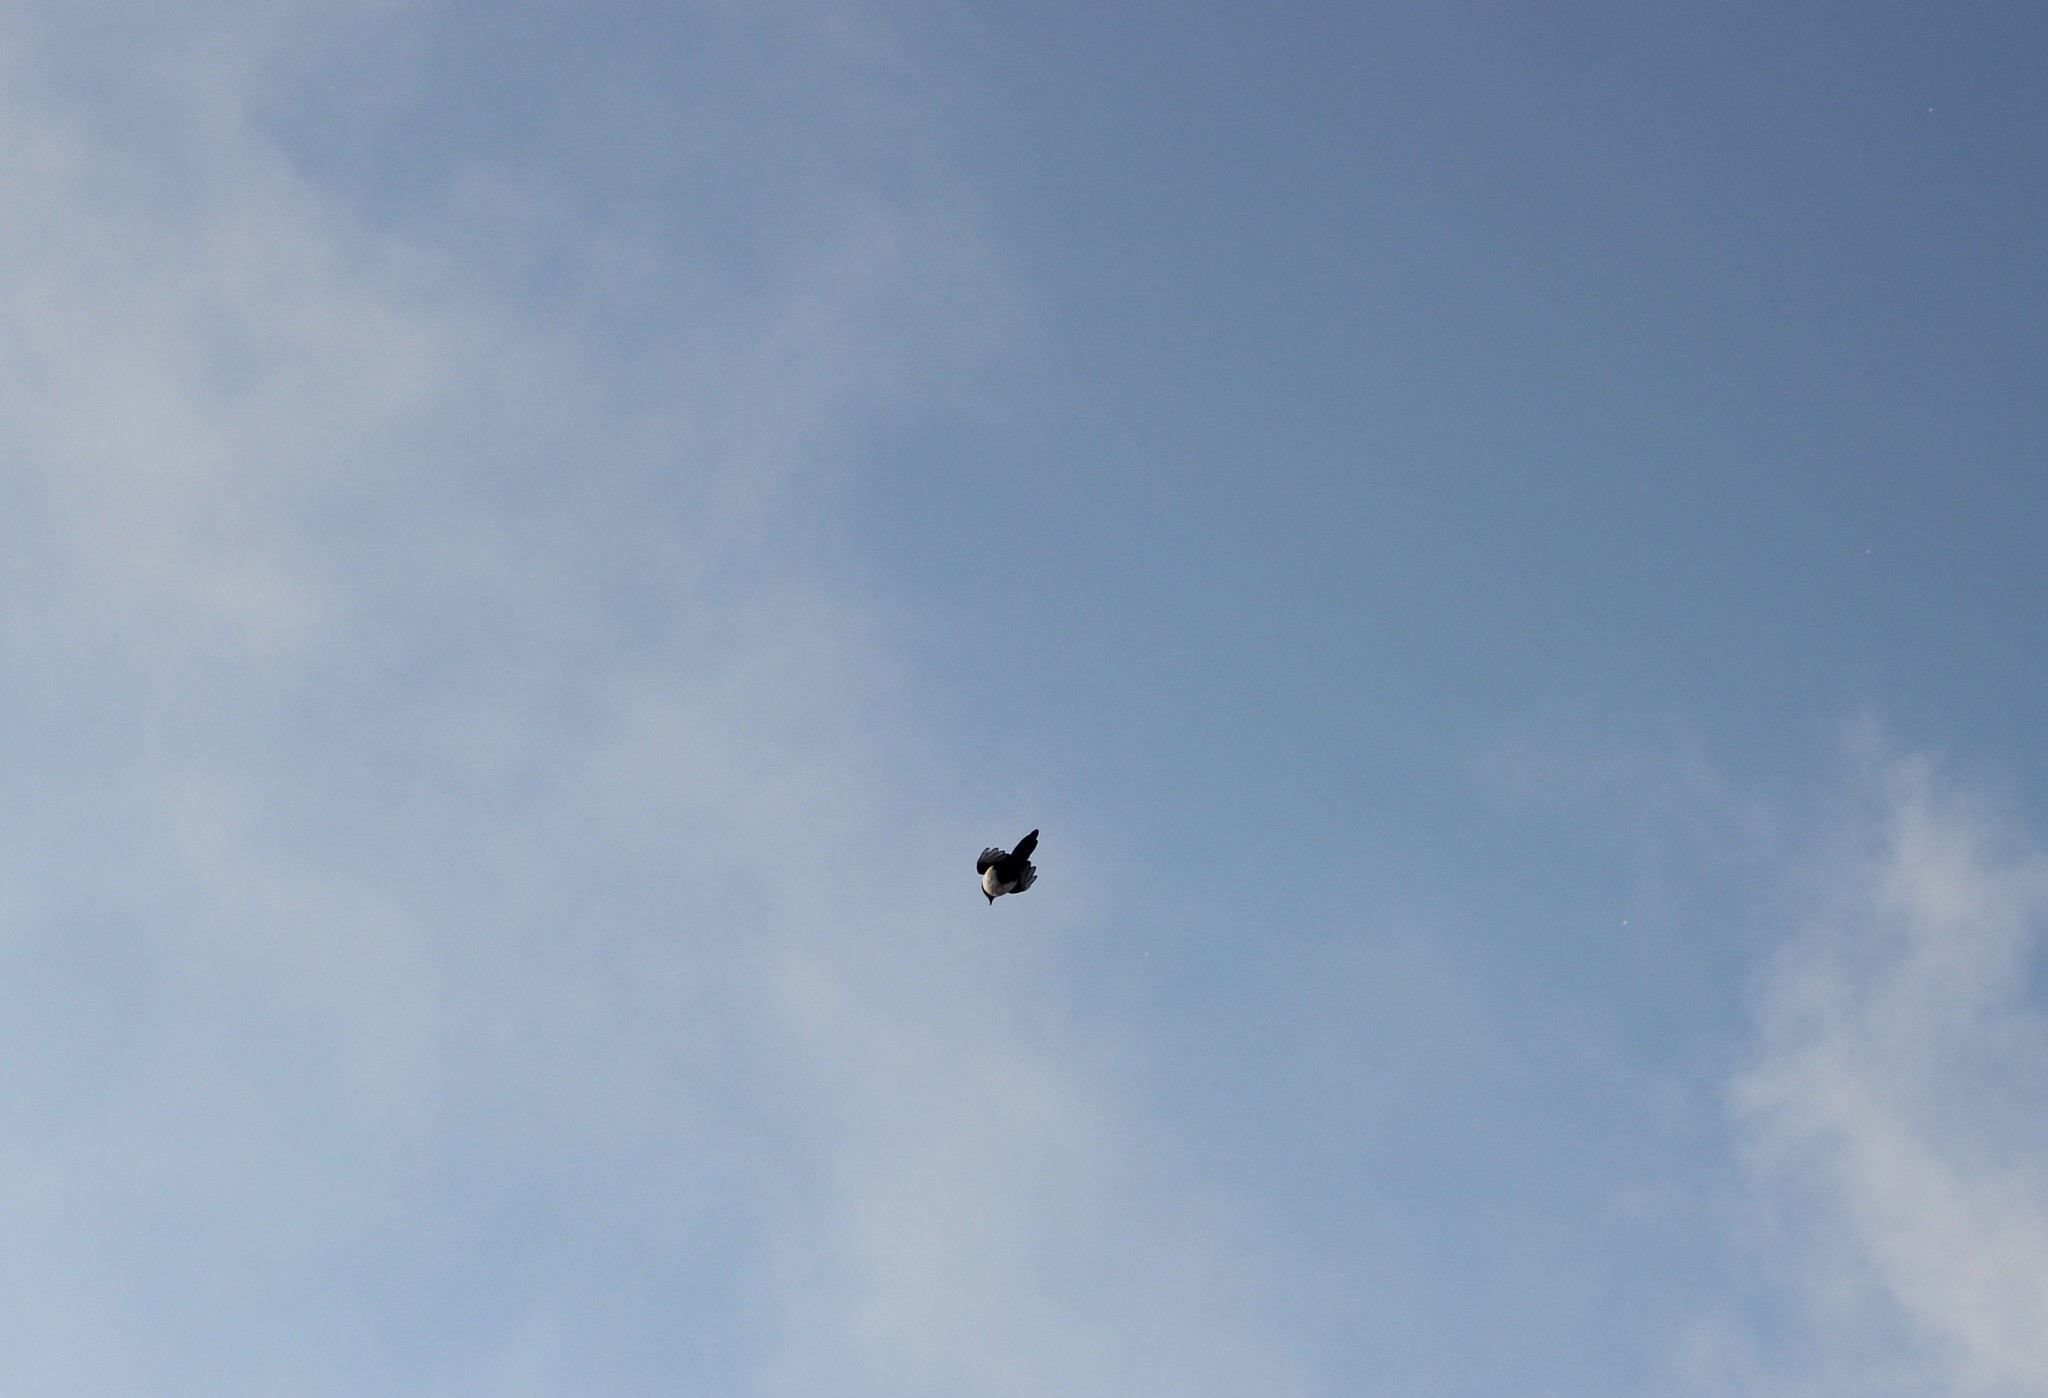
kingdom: Animalia
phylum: Chordata
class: Aves
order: Passeriformes
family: Corvidae
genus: Pica
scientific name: Pica pica
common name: Eurasian magpie
